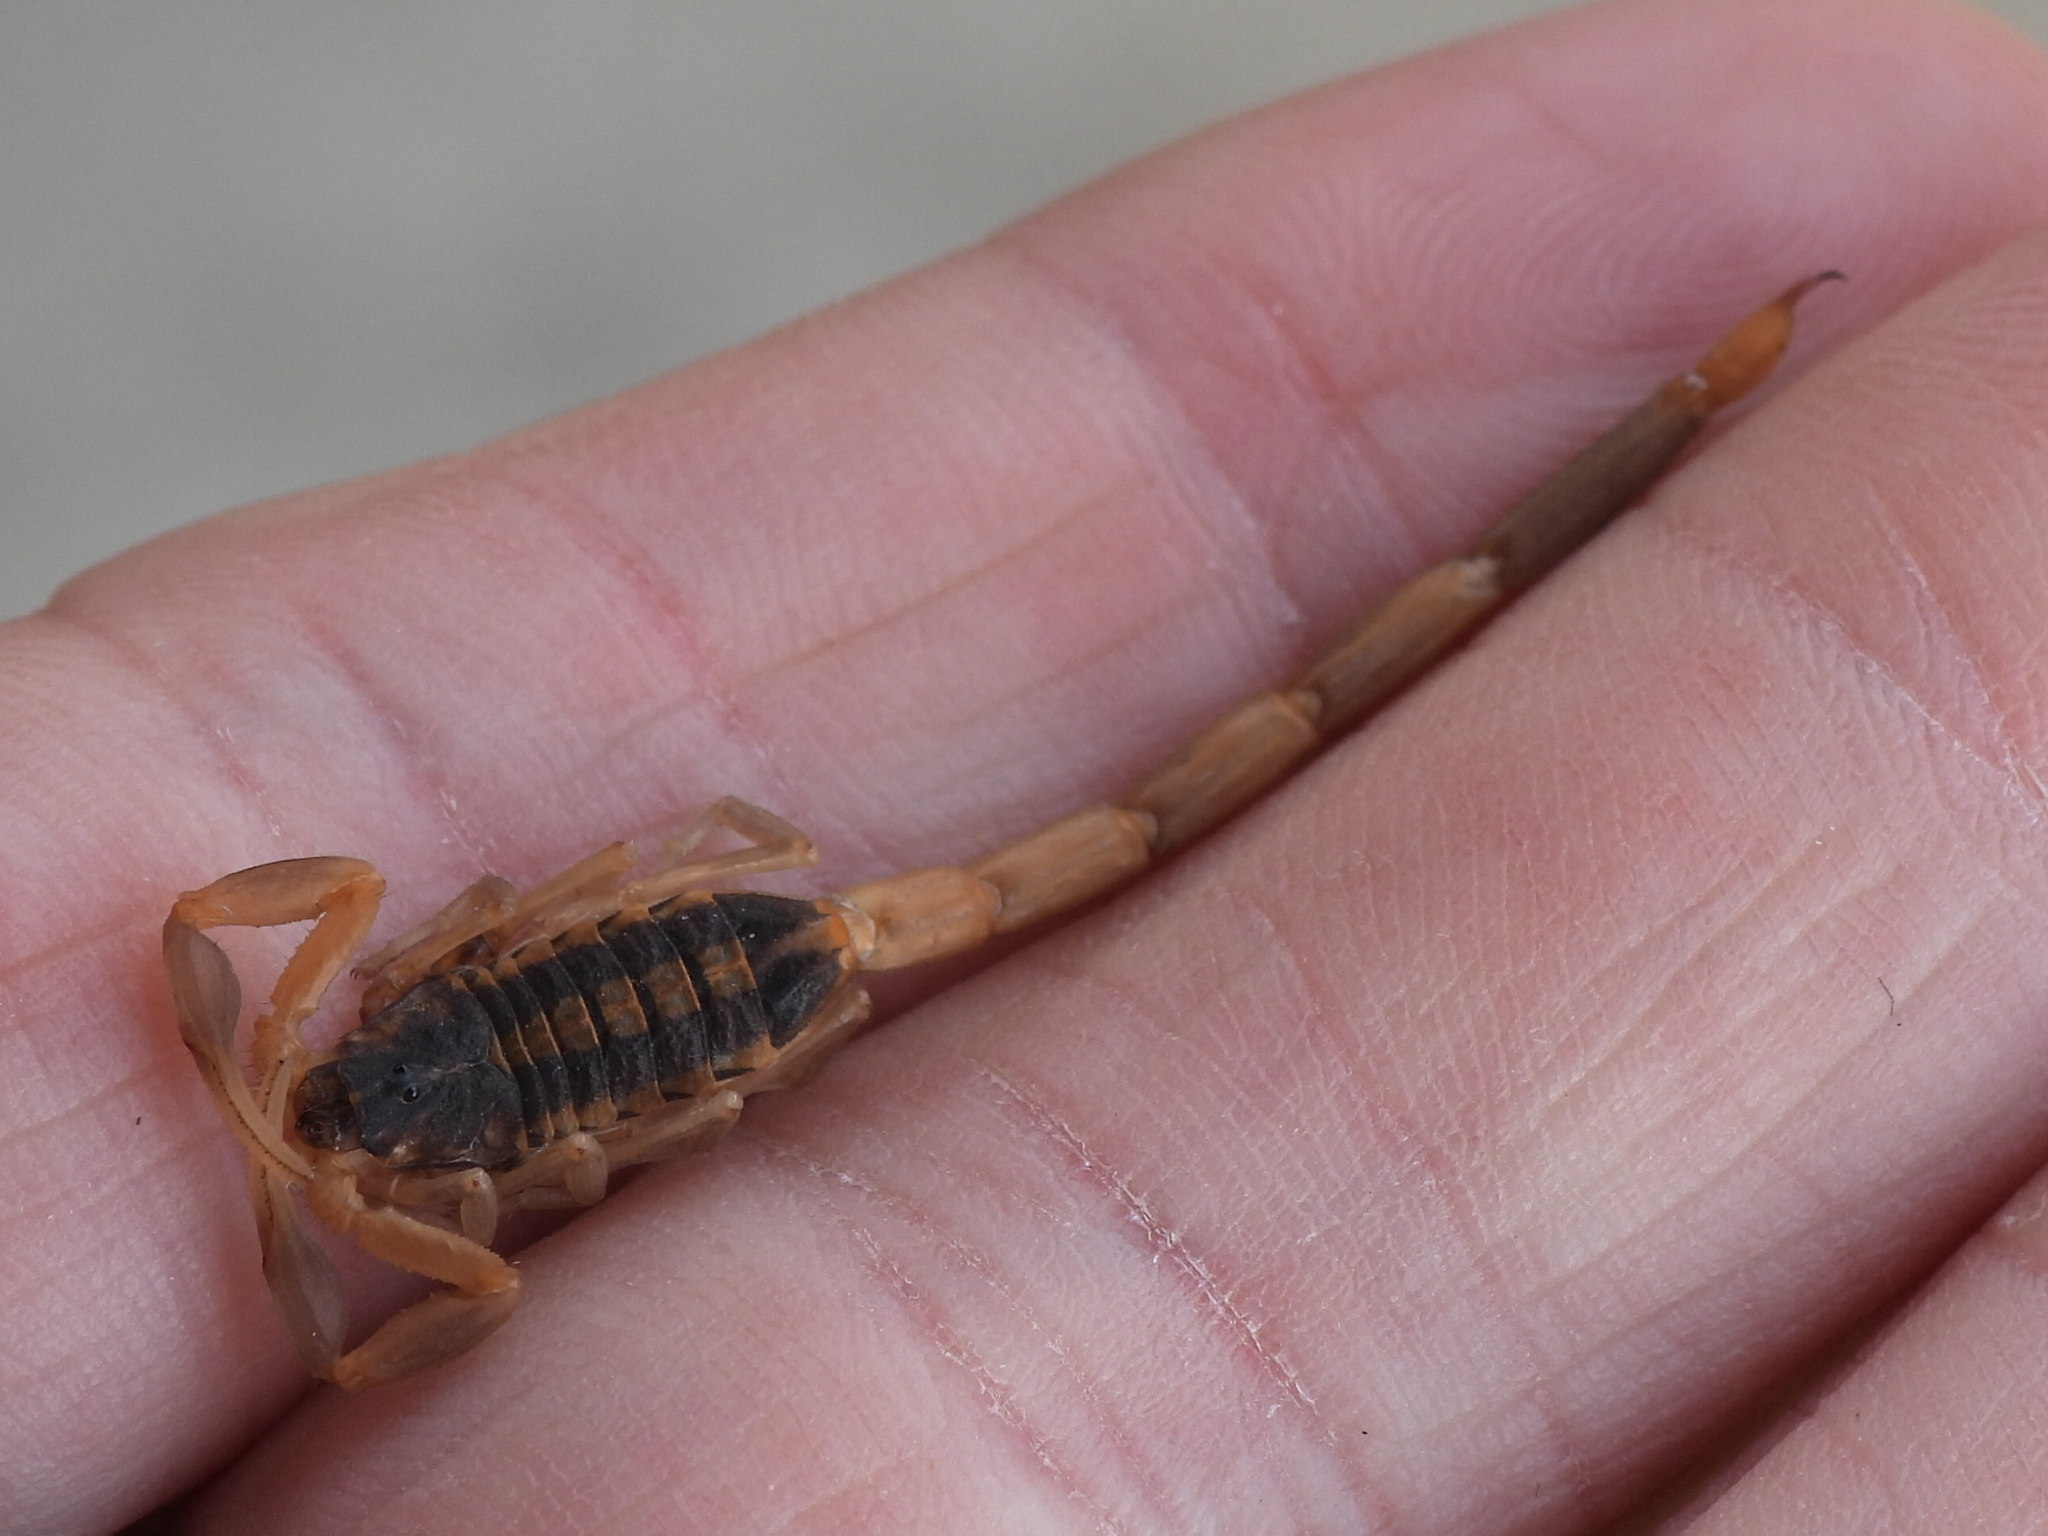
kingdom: Animalia
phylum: Arthropoda
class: Arachnida
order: Scorpiones
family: Buthidae
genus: Centruroides
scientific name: Centruroides vittatus
